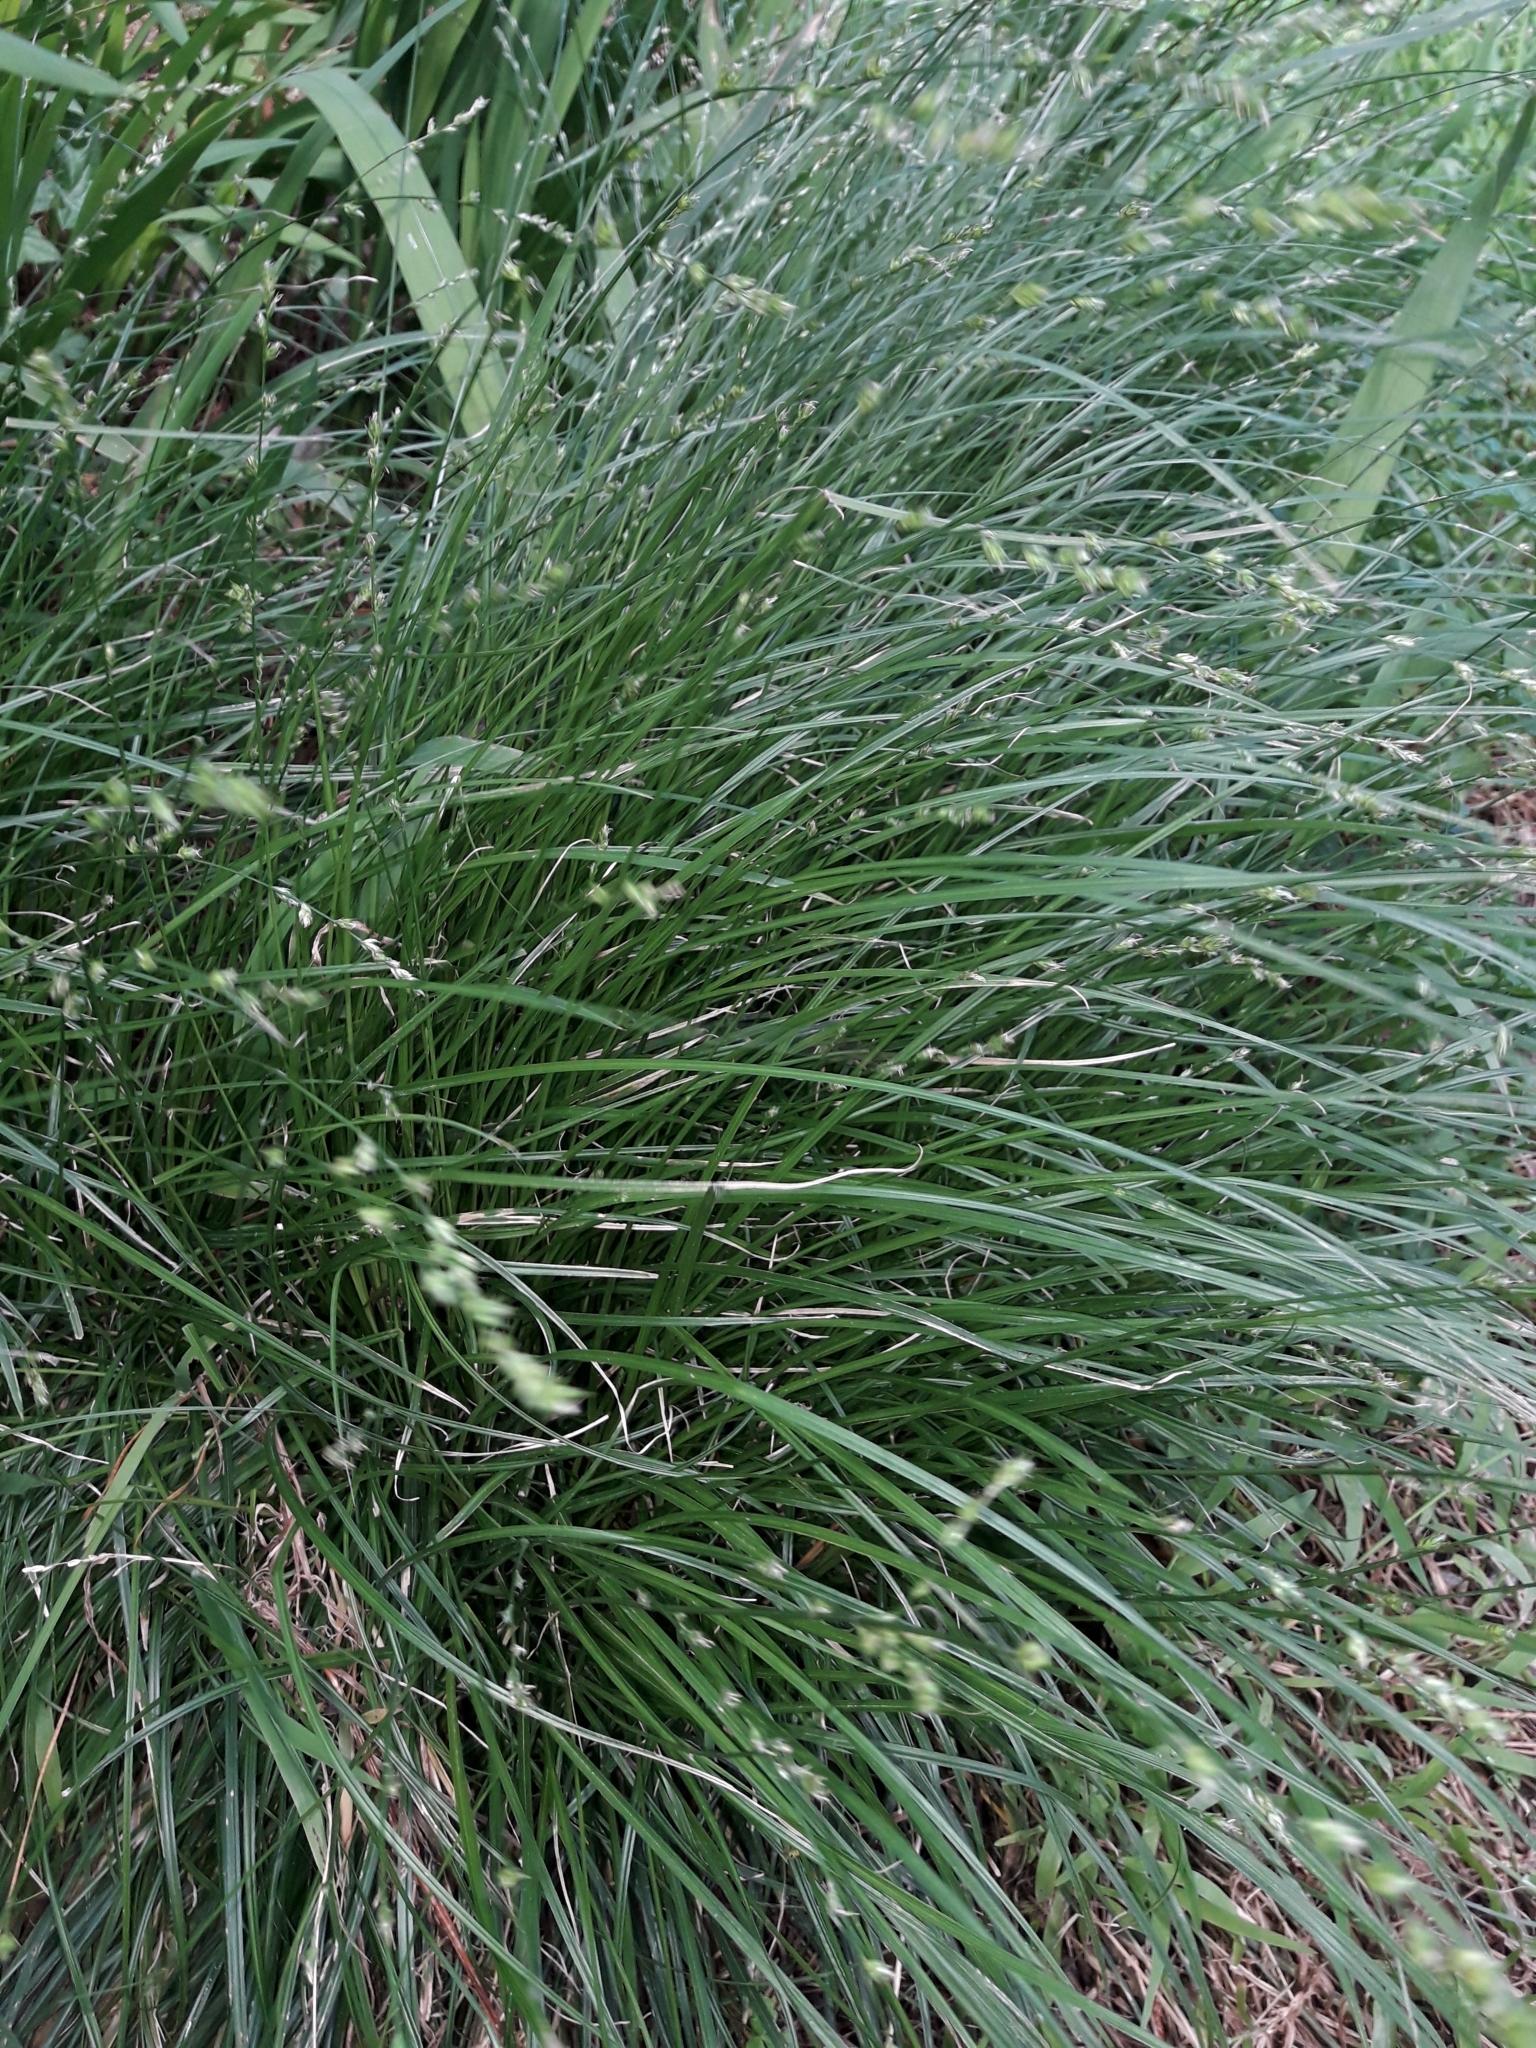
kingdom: Plantae
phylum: Tracheophyta
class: Liliopsida
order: Poales
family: Cyperaceae
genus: Carex
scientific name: Carex divulsa
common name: Grassland sedge
